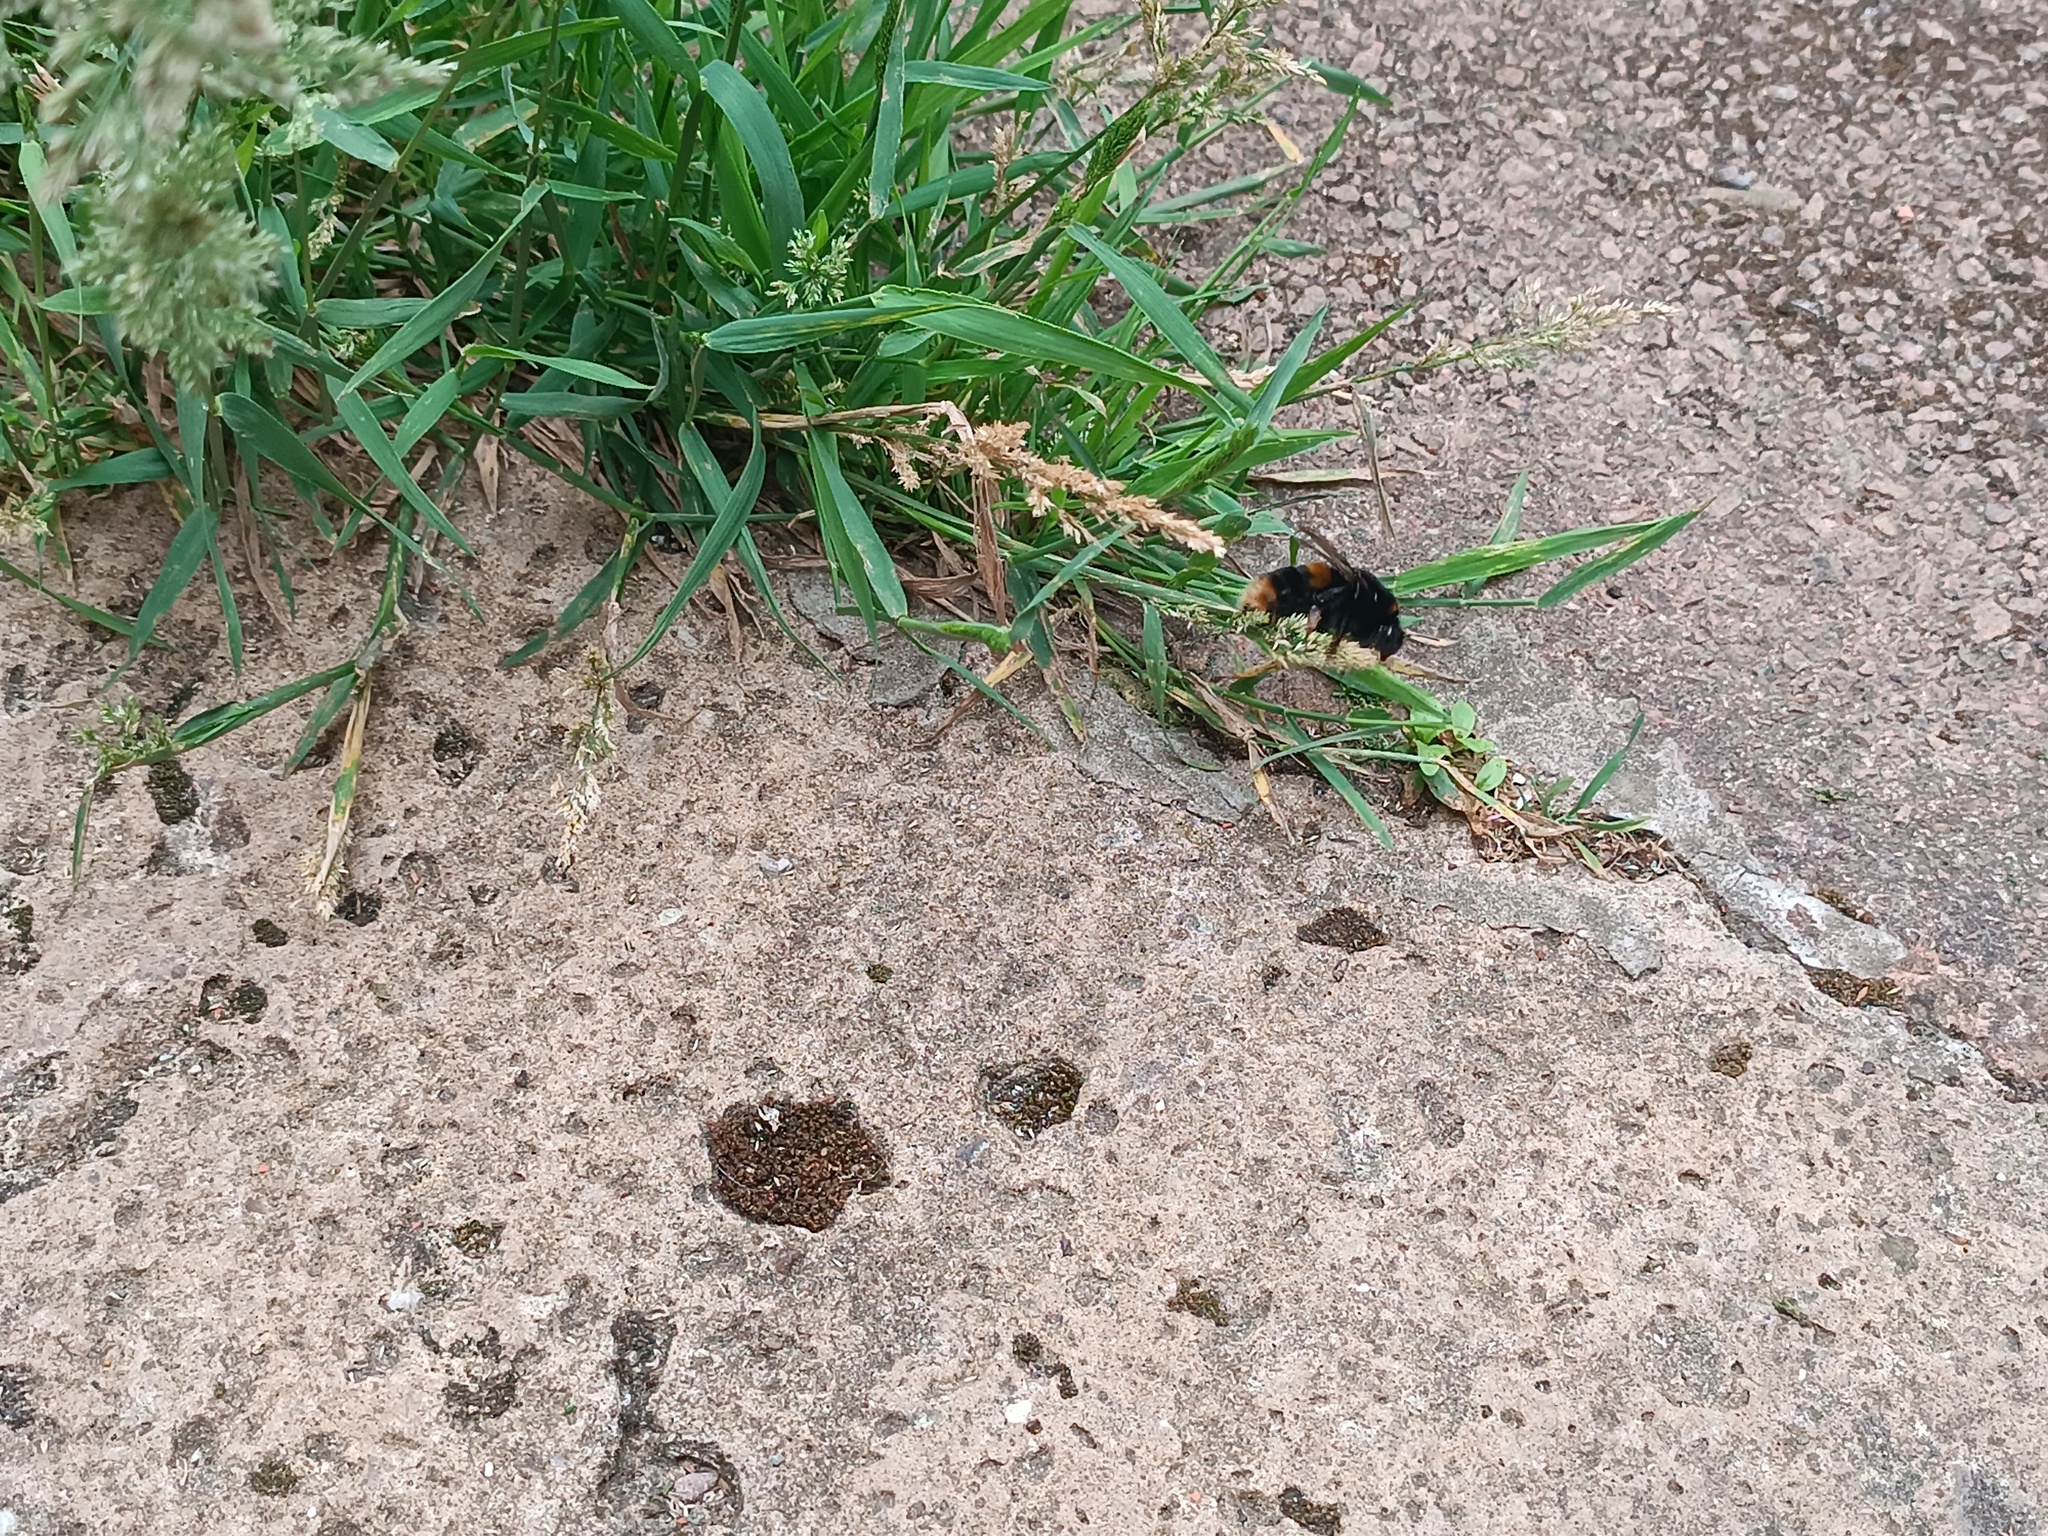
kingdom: Animalia
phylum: Arthropoda
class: Insecta
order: Hymenoptera
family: Apidae
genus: Bombus
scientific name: Bombus terrestris
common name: Buff-tailed bumblebee
